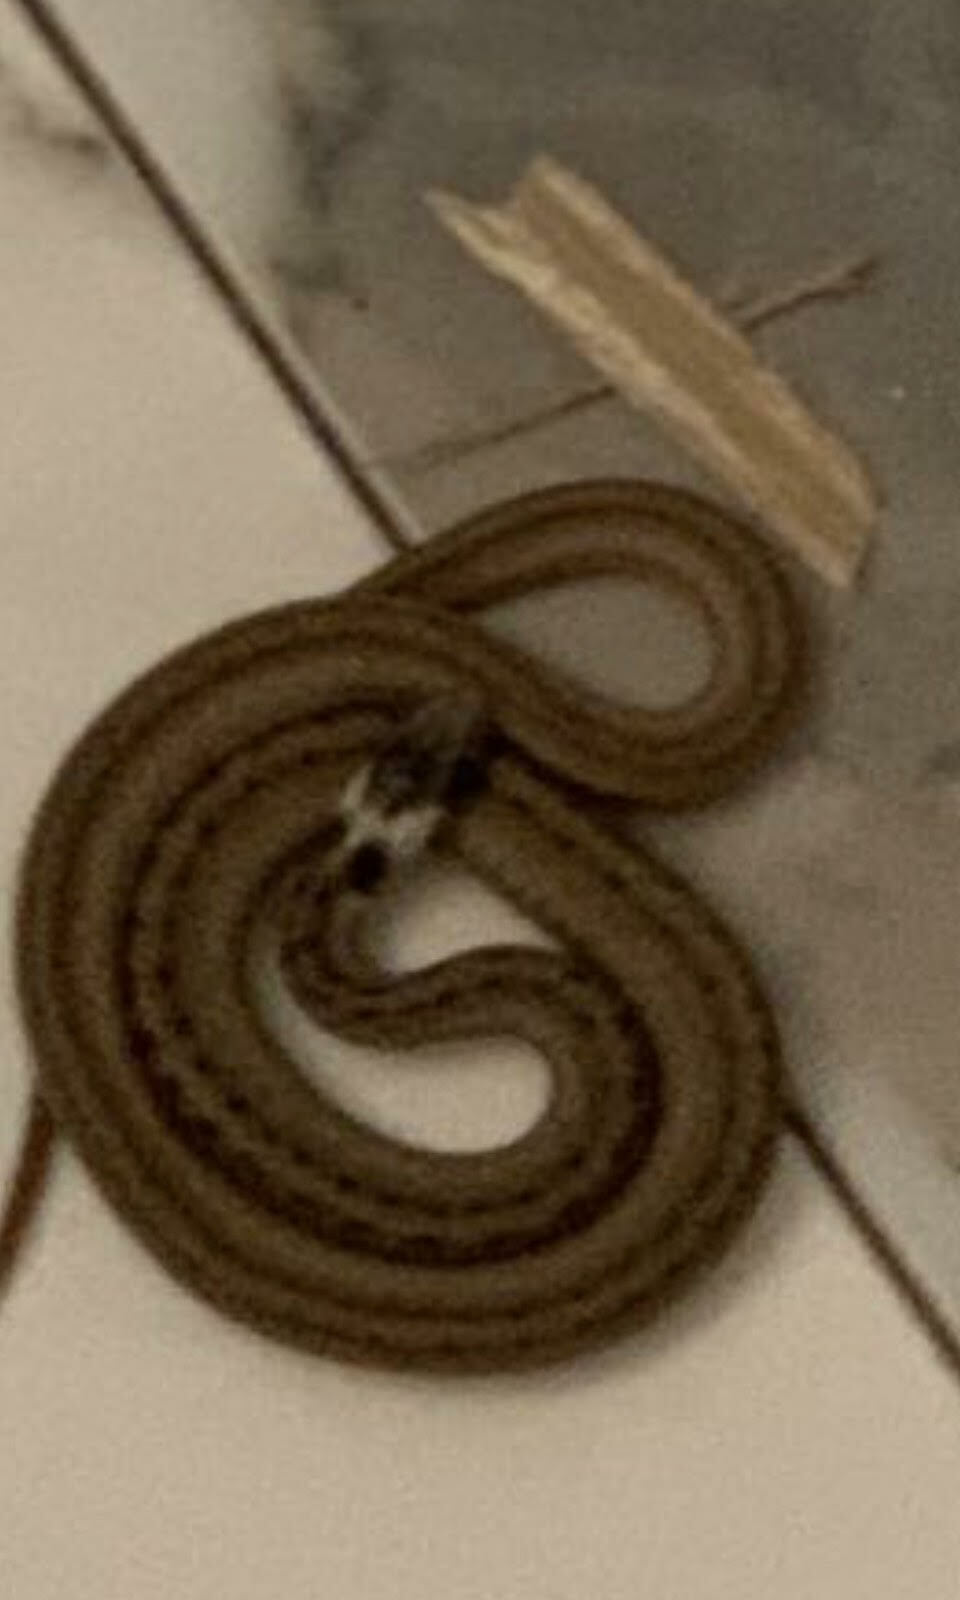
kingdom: Animalia
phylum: Chordata
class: Squamata
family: Colubridae
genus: Storeria
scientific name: Storeria victa
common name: Florida brown snake
